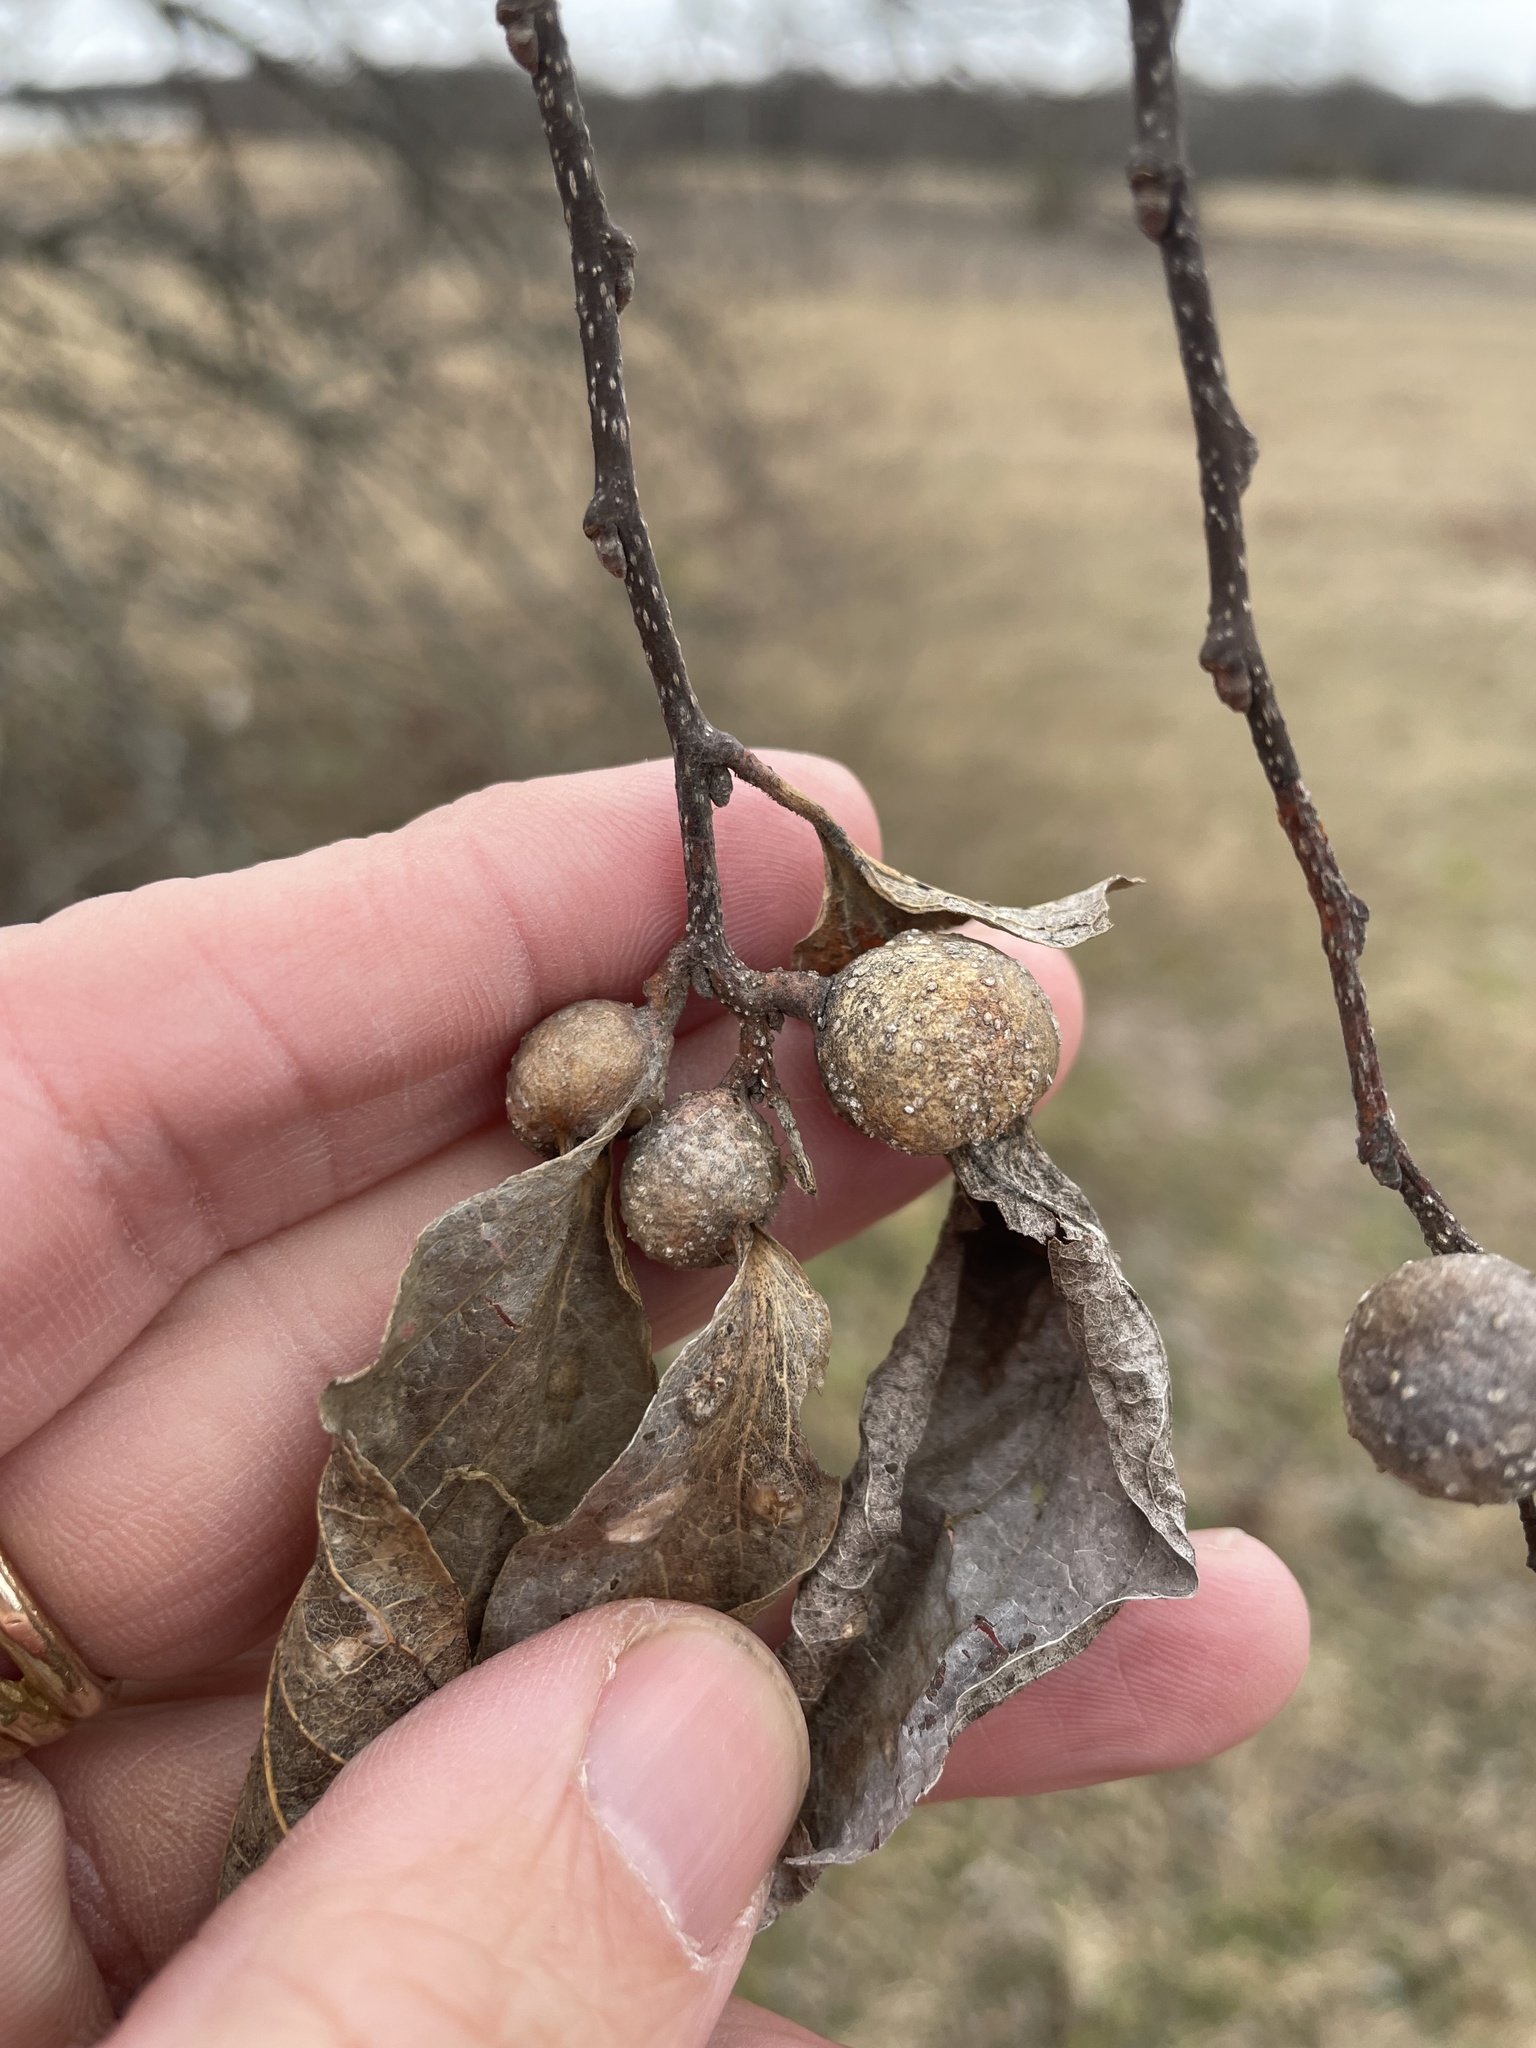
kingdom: Animalia
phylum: Arthropoda
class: Insecta
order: Hemiptera
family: Aphalaridae
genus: Pachypsylla
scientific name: Pachypsylla venusta
